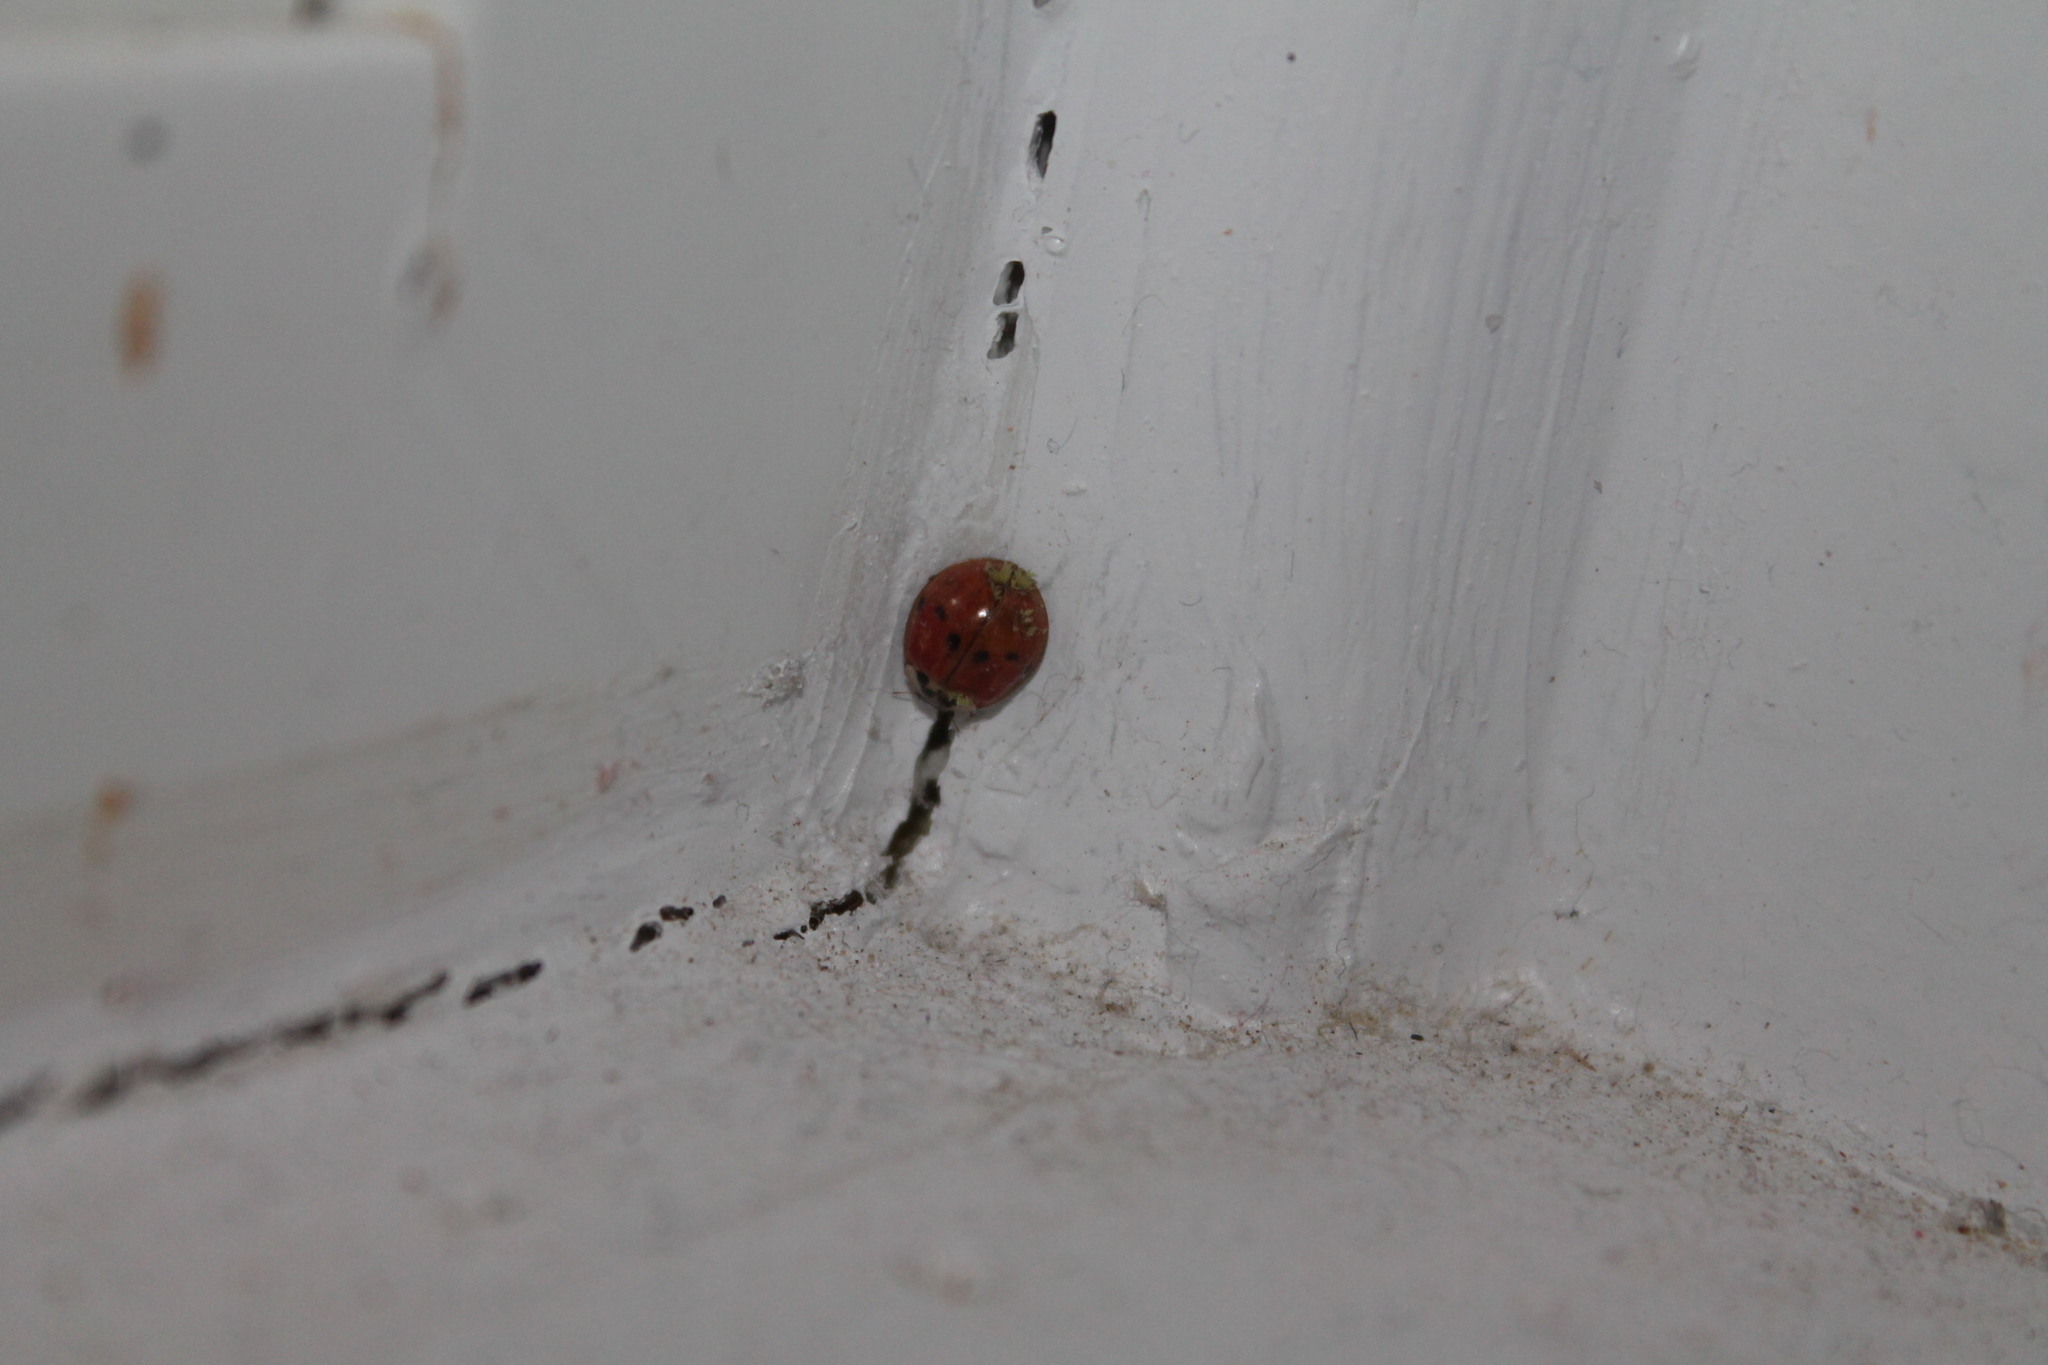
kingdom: Fungi
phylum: Ascomycota
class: Laboulbeniomycetes
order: Laboulbeniales
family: Laboulbeniaceae
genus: Hesperomyces
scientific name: Hesperomyces harmoniae
